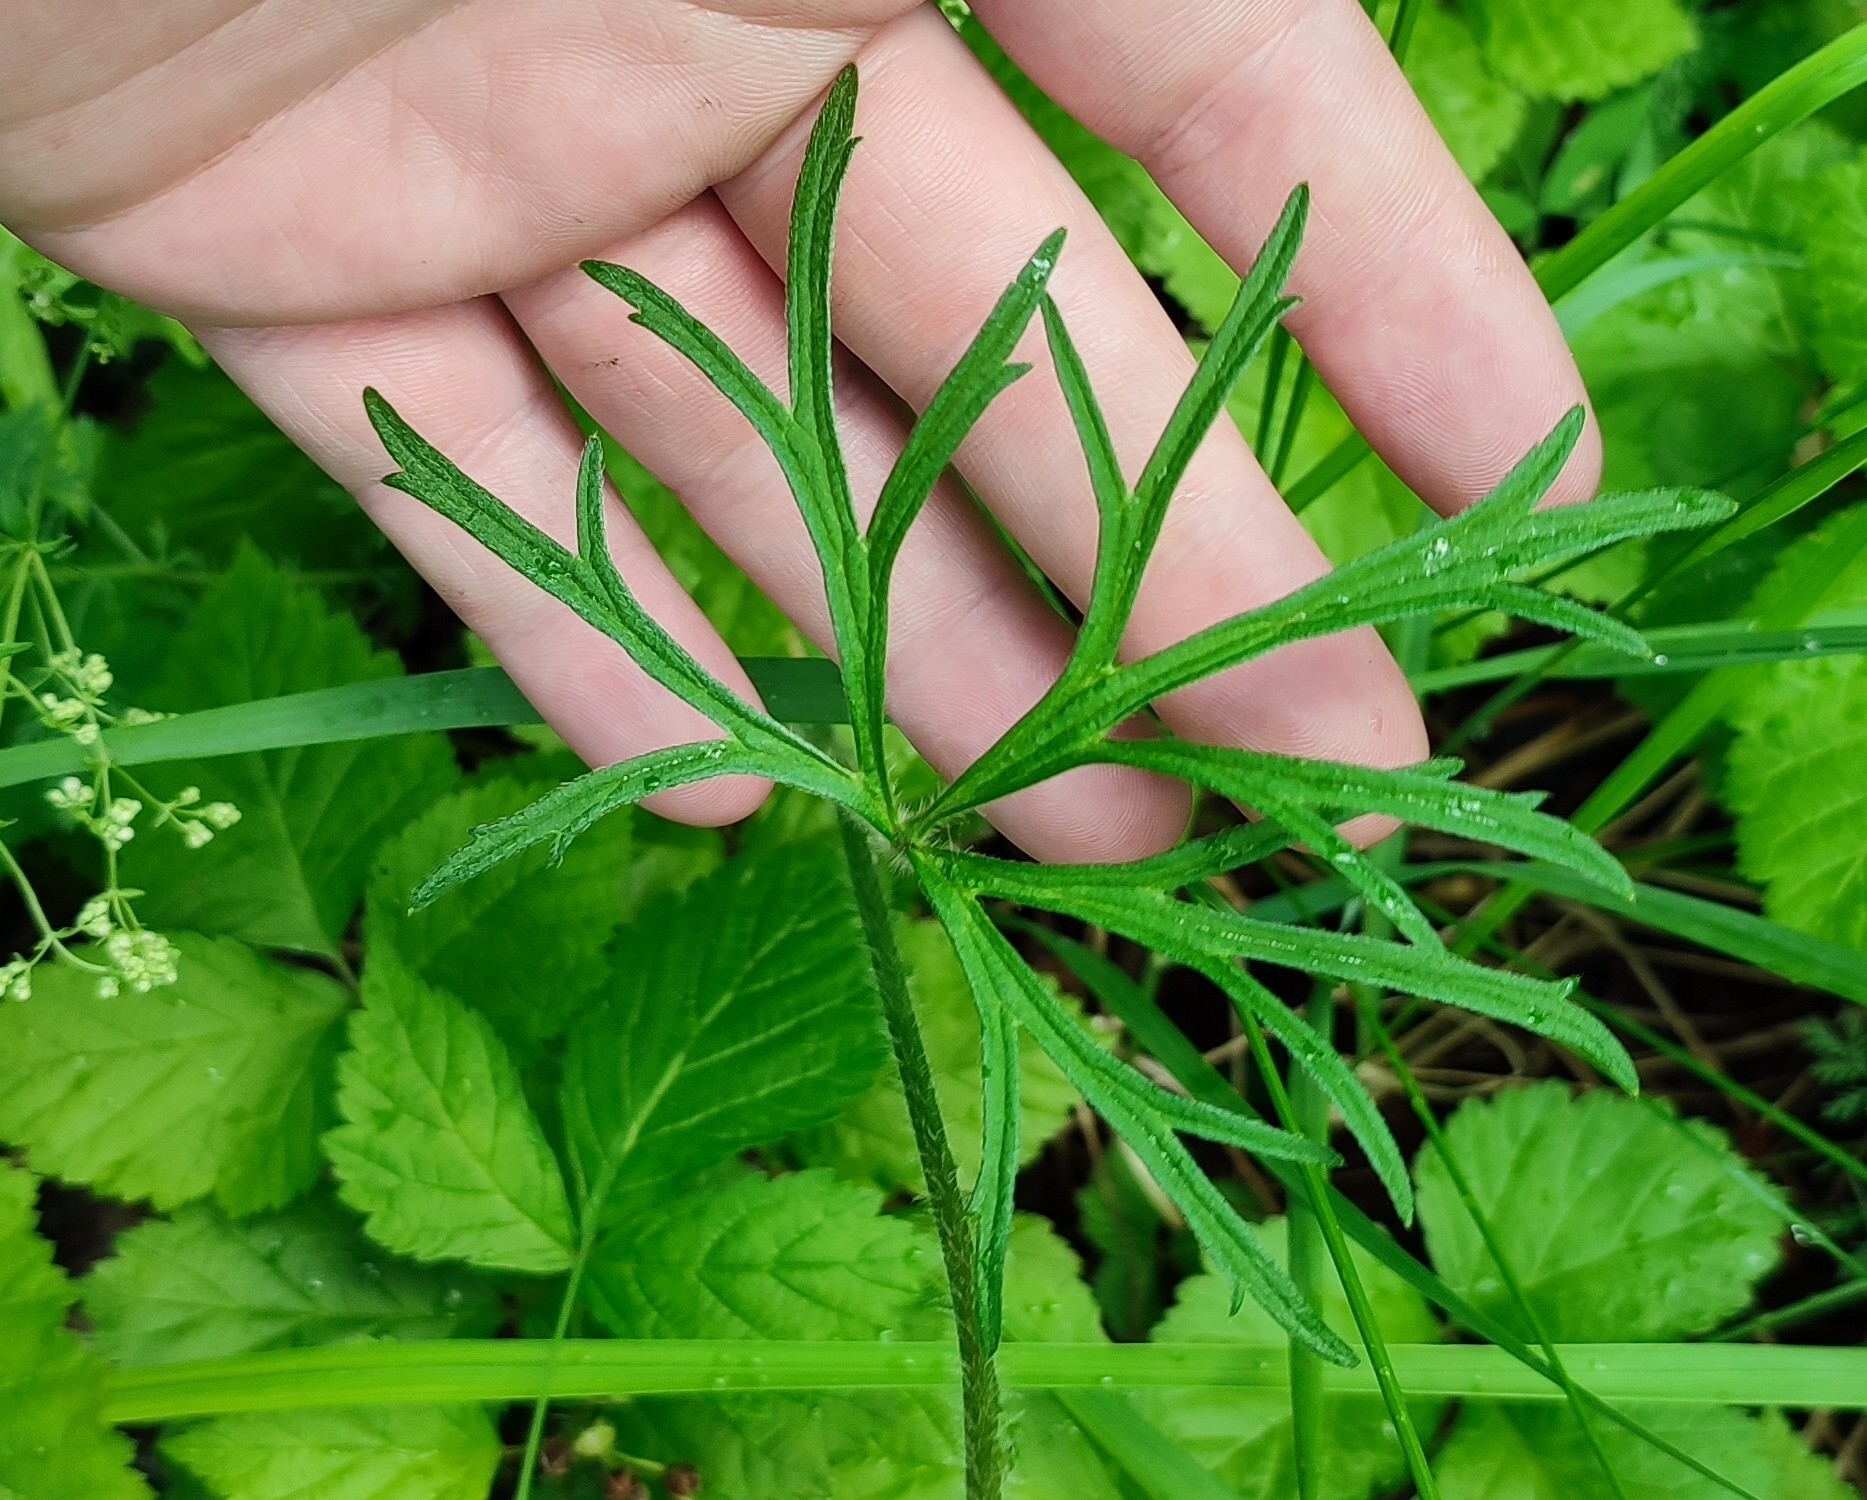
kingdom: Plantae
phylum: Tracheophyta
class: Magnoliopsida
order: Ranunculales
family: Ranunculaceae
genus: Ranunculus
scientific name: Ranunculus polyanthemos
